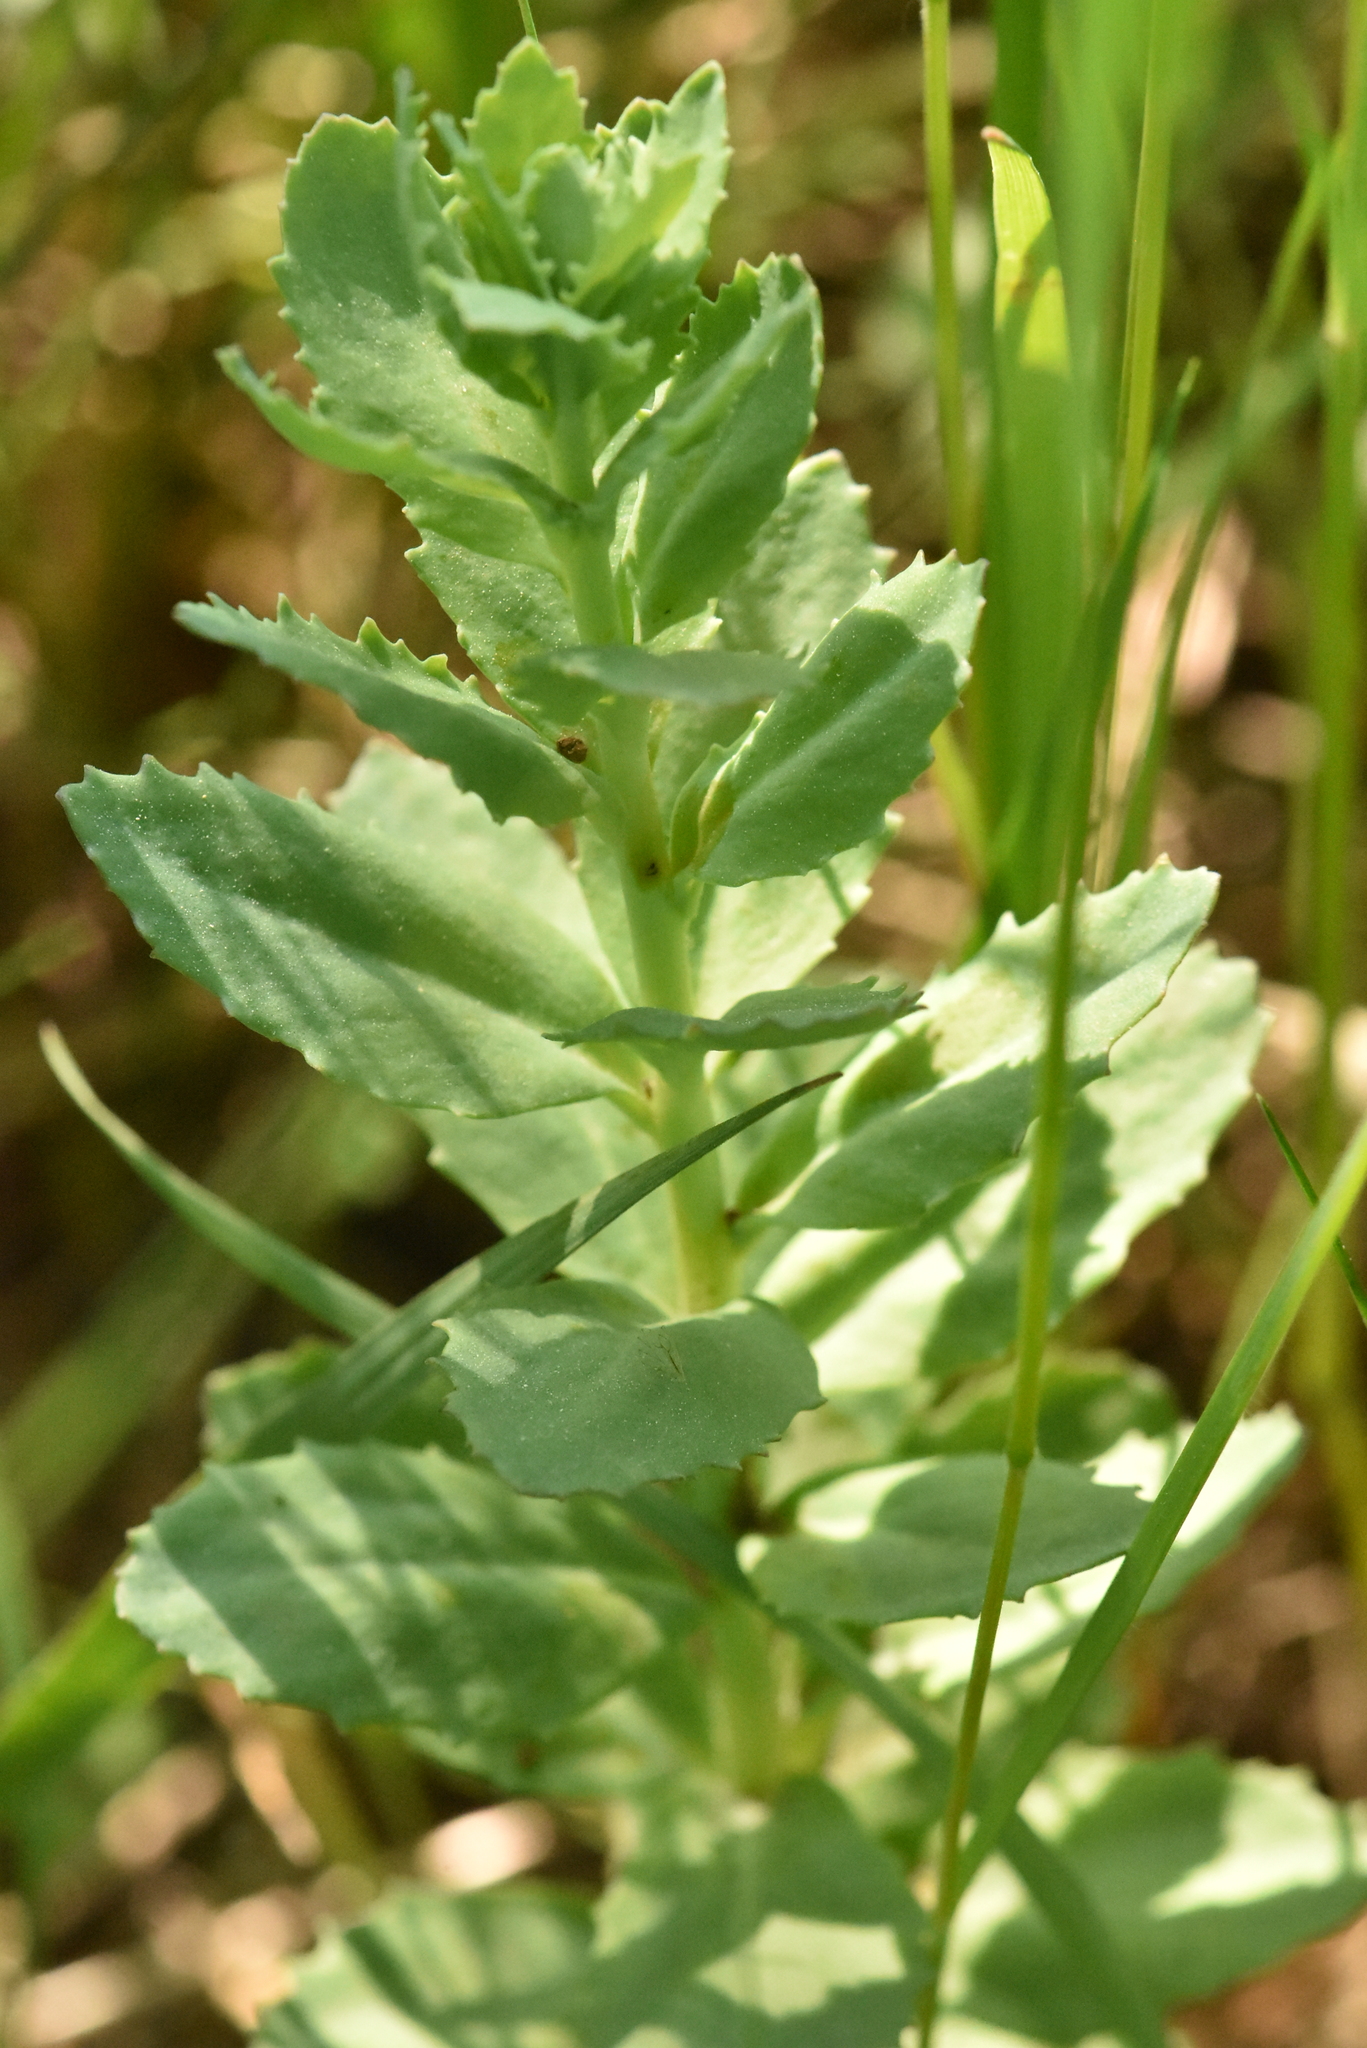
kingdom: Plantae
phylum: Tracheophyta
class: Magnoliopsida
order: Saxifragales
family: Crassulaceae
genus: Hylotelephium
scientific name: Hylotelephium telephium
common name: Live-forever
